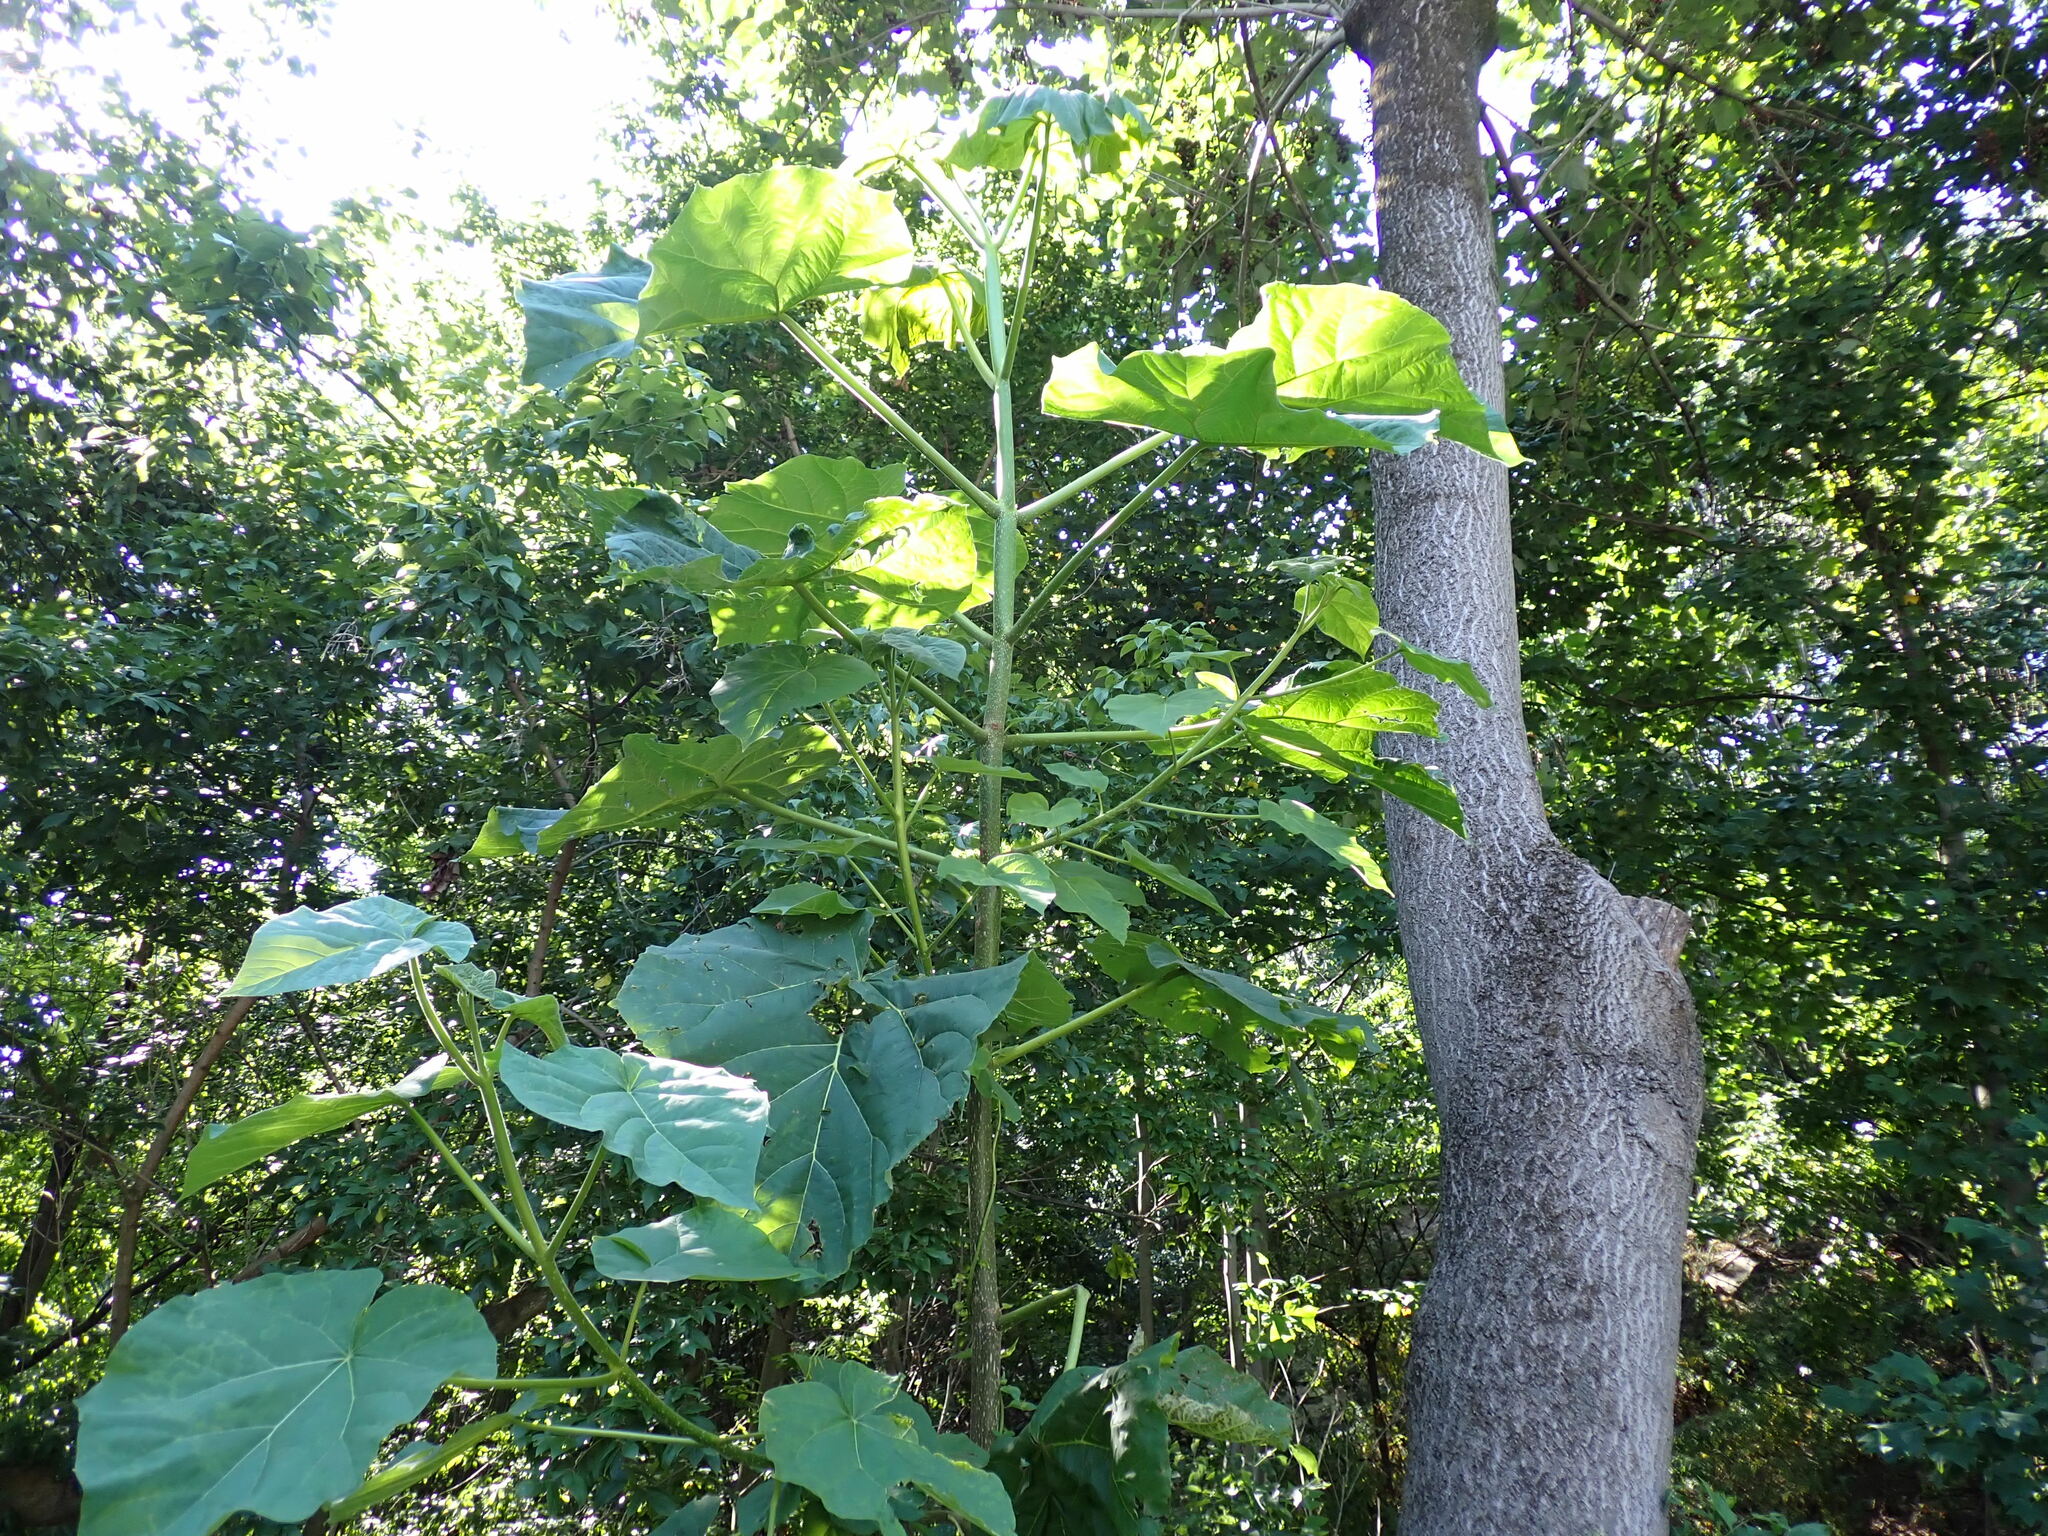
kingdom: Plantae
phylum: Tracheophyta
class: Magnoliopsida
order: Lamiales
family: Paulowniaceae
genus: Paulownia
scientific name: Paulownia tomentosa
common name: Foxglove-tree
